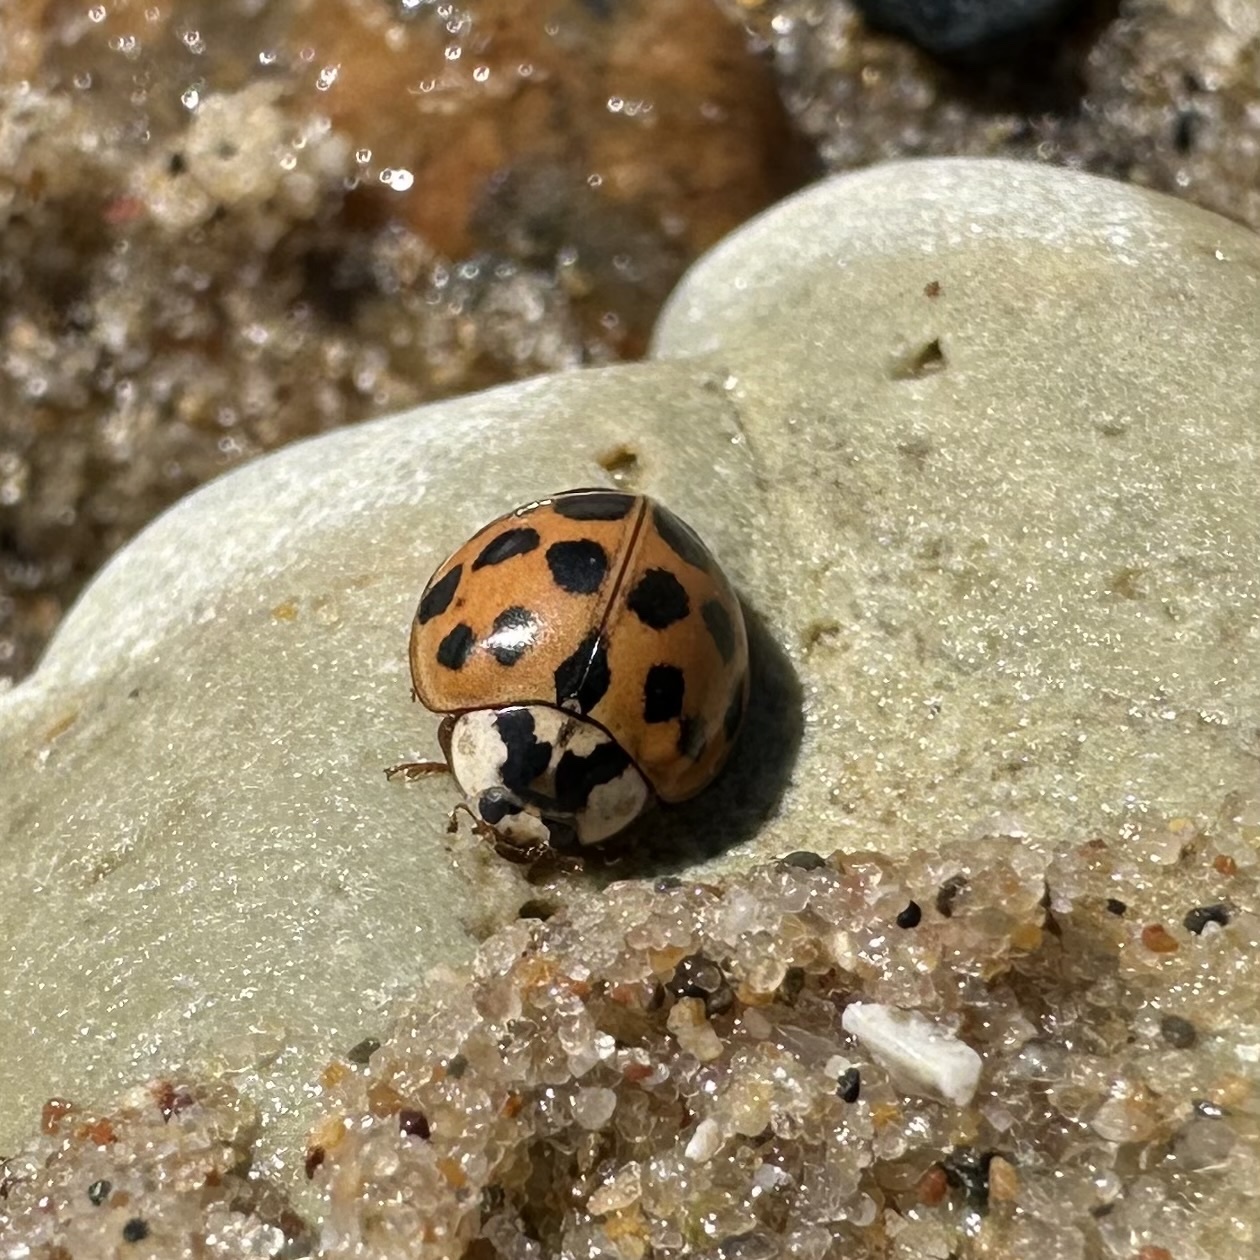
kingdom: Animalia
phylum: Arthropoda
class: Insecta
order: Coleoptera
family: Coccinellidae
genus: Harmonia
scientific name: Harmonia axyridis
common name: Harlequin ladybird
